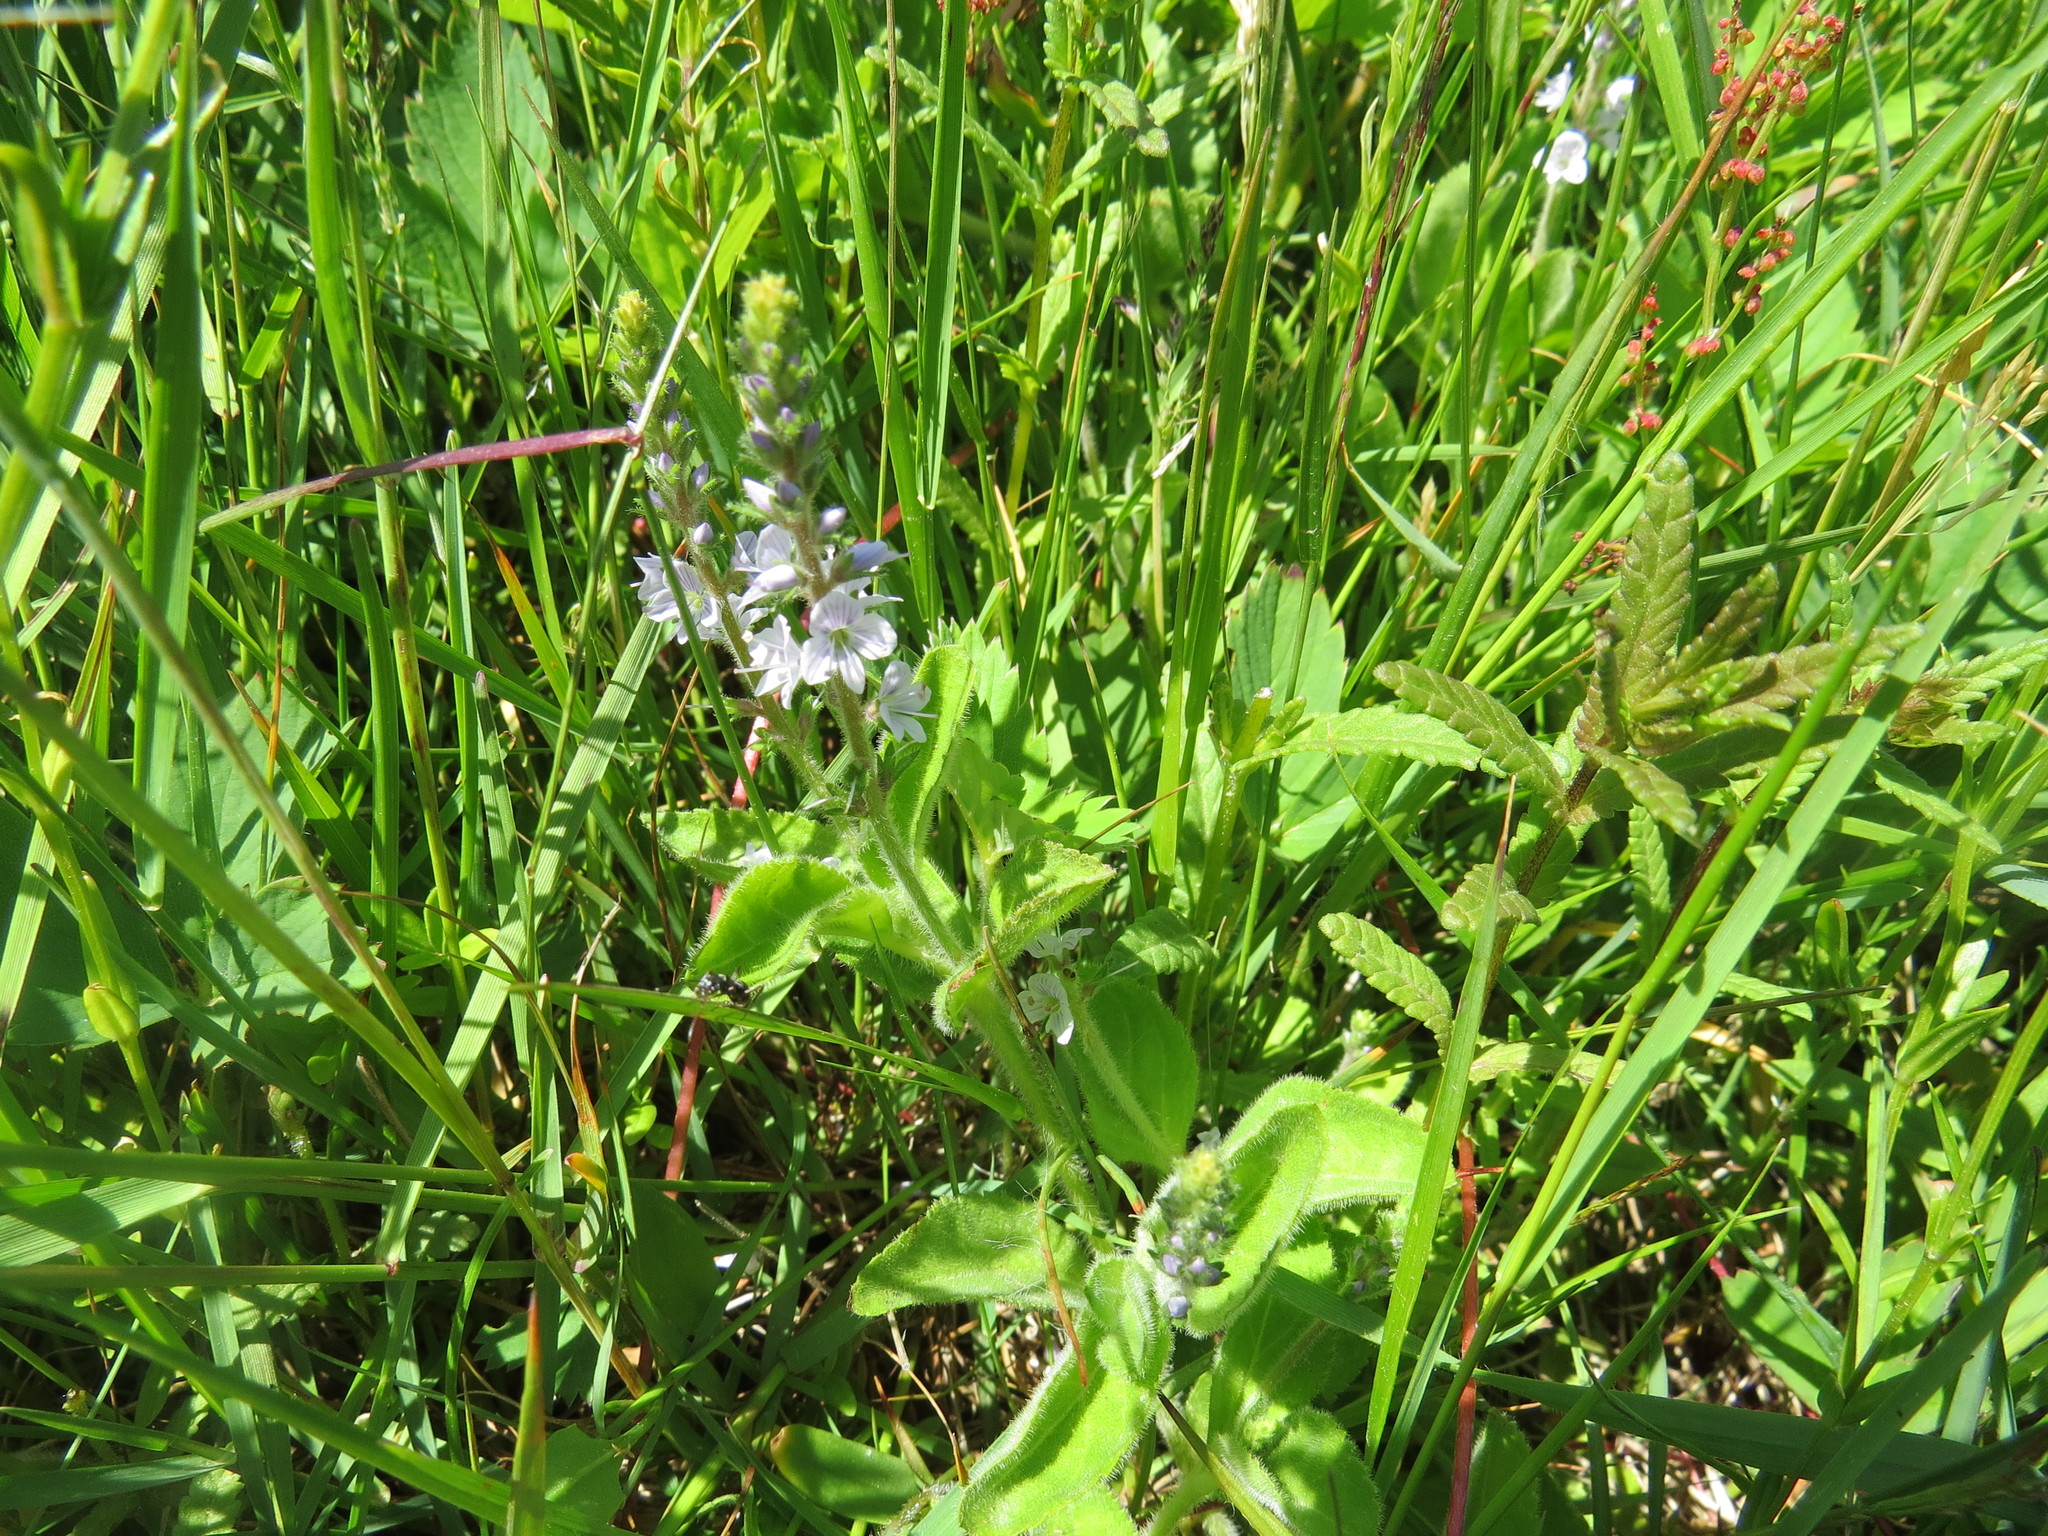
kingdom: Plantae
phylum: Tracheophyta
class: Magnoliopsida
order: Lamiales
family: Plantaginaceae
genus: Veronica
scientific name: Veronica officinalis
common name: Common speedwell
